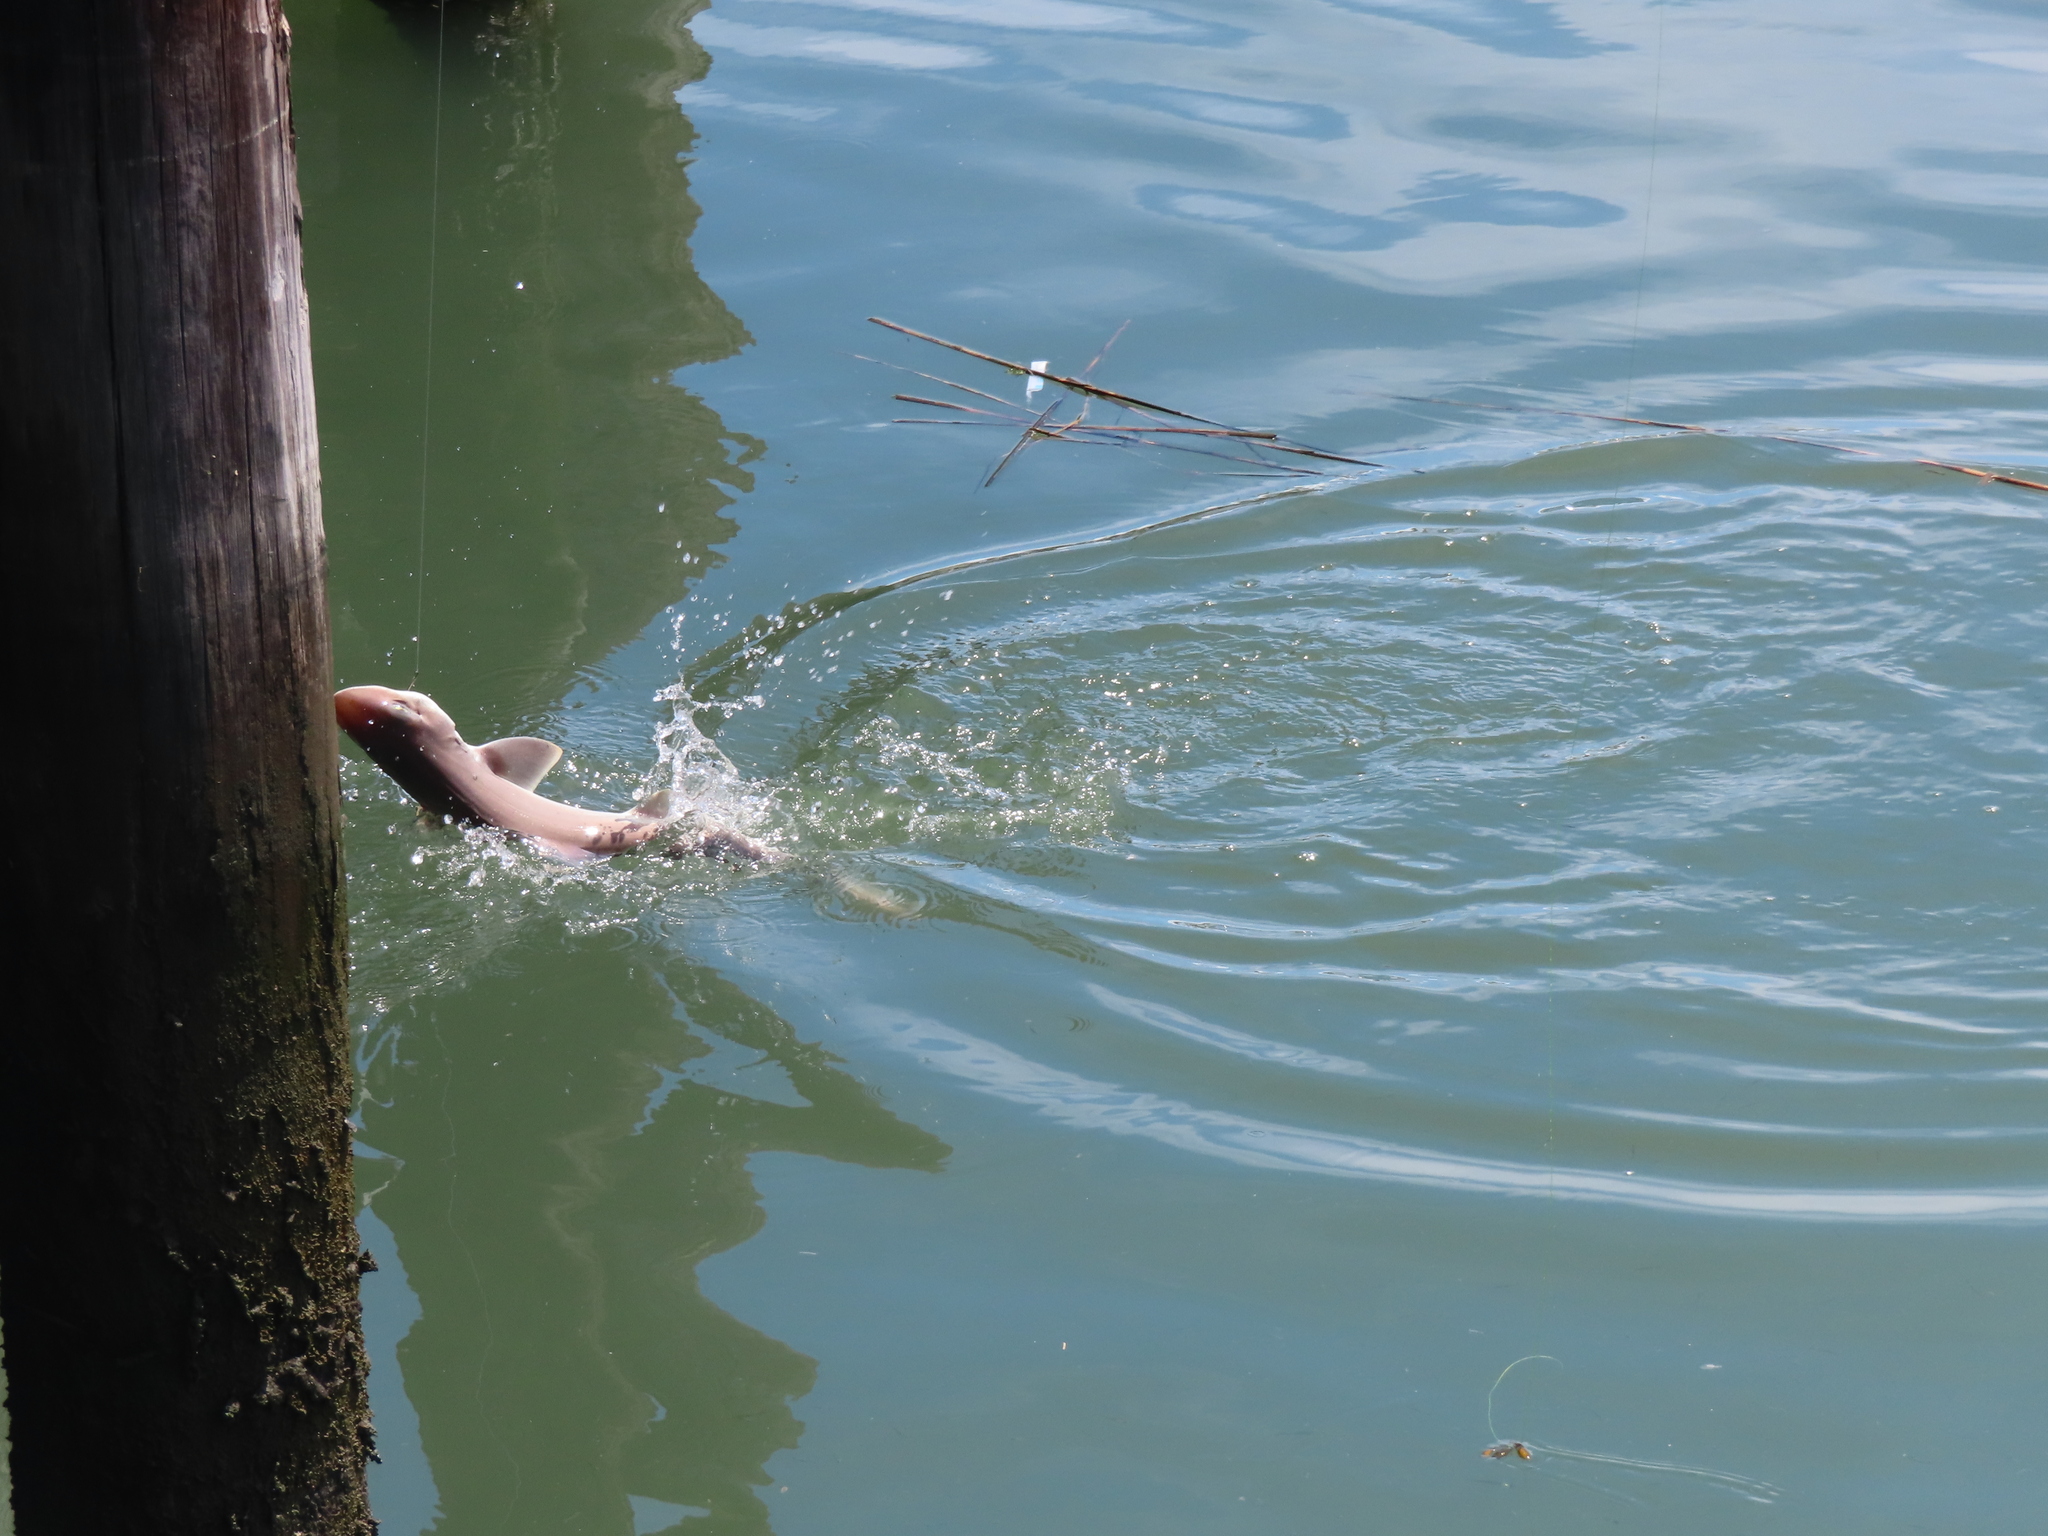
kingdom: Animalia
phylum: Chordata
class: Elasmobranchii
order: Carcharhiniformes
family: Triakidae
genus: Mustelus
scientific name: Mustelus canis
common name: Smooth dogfish
